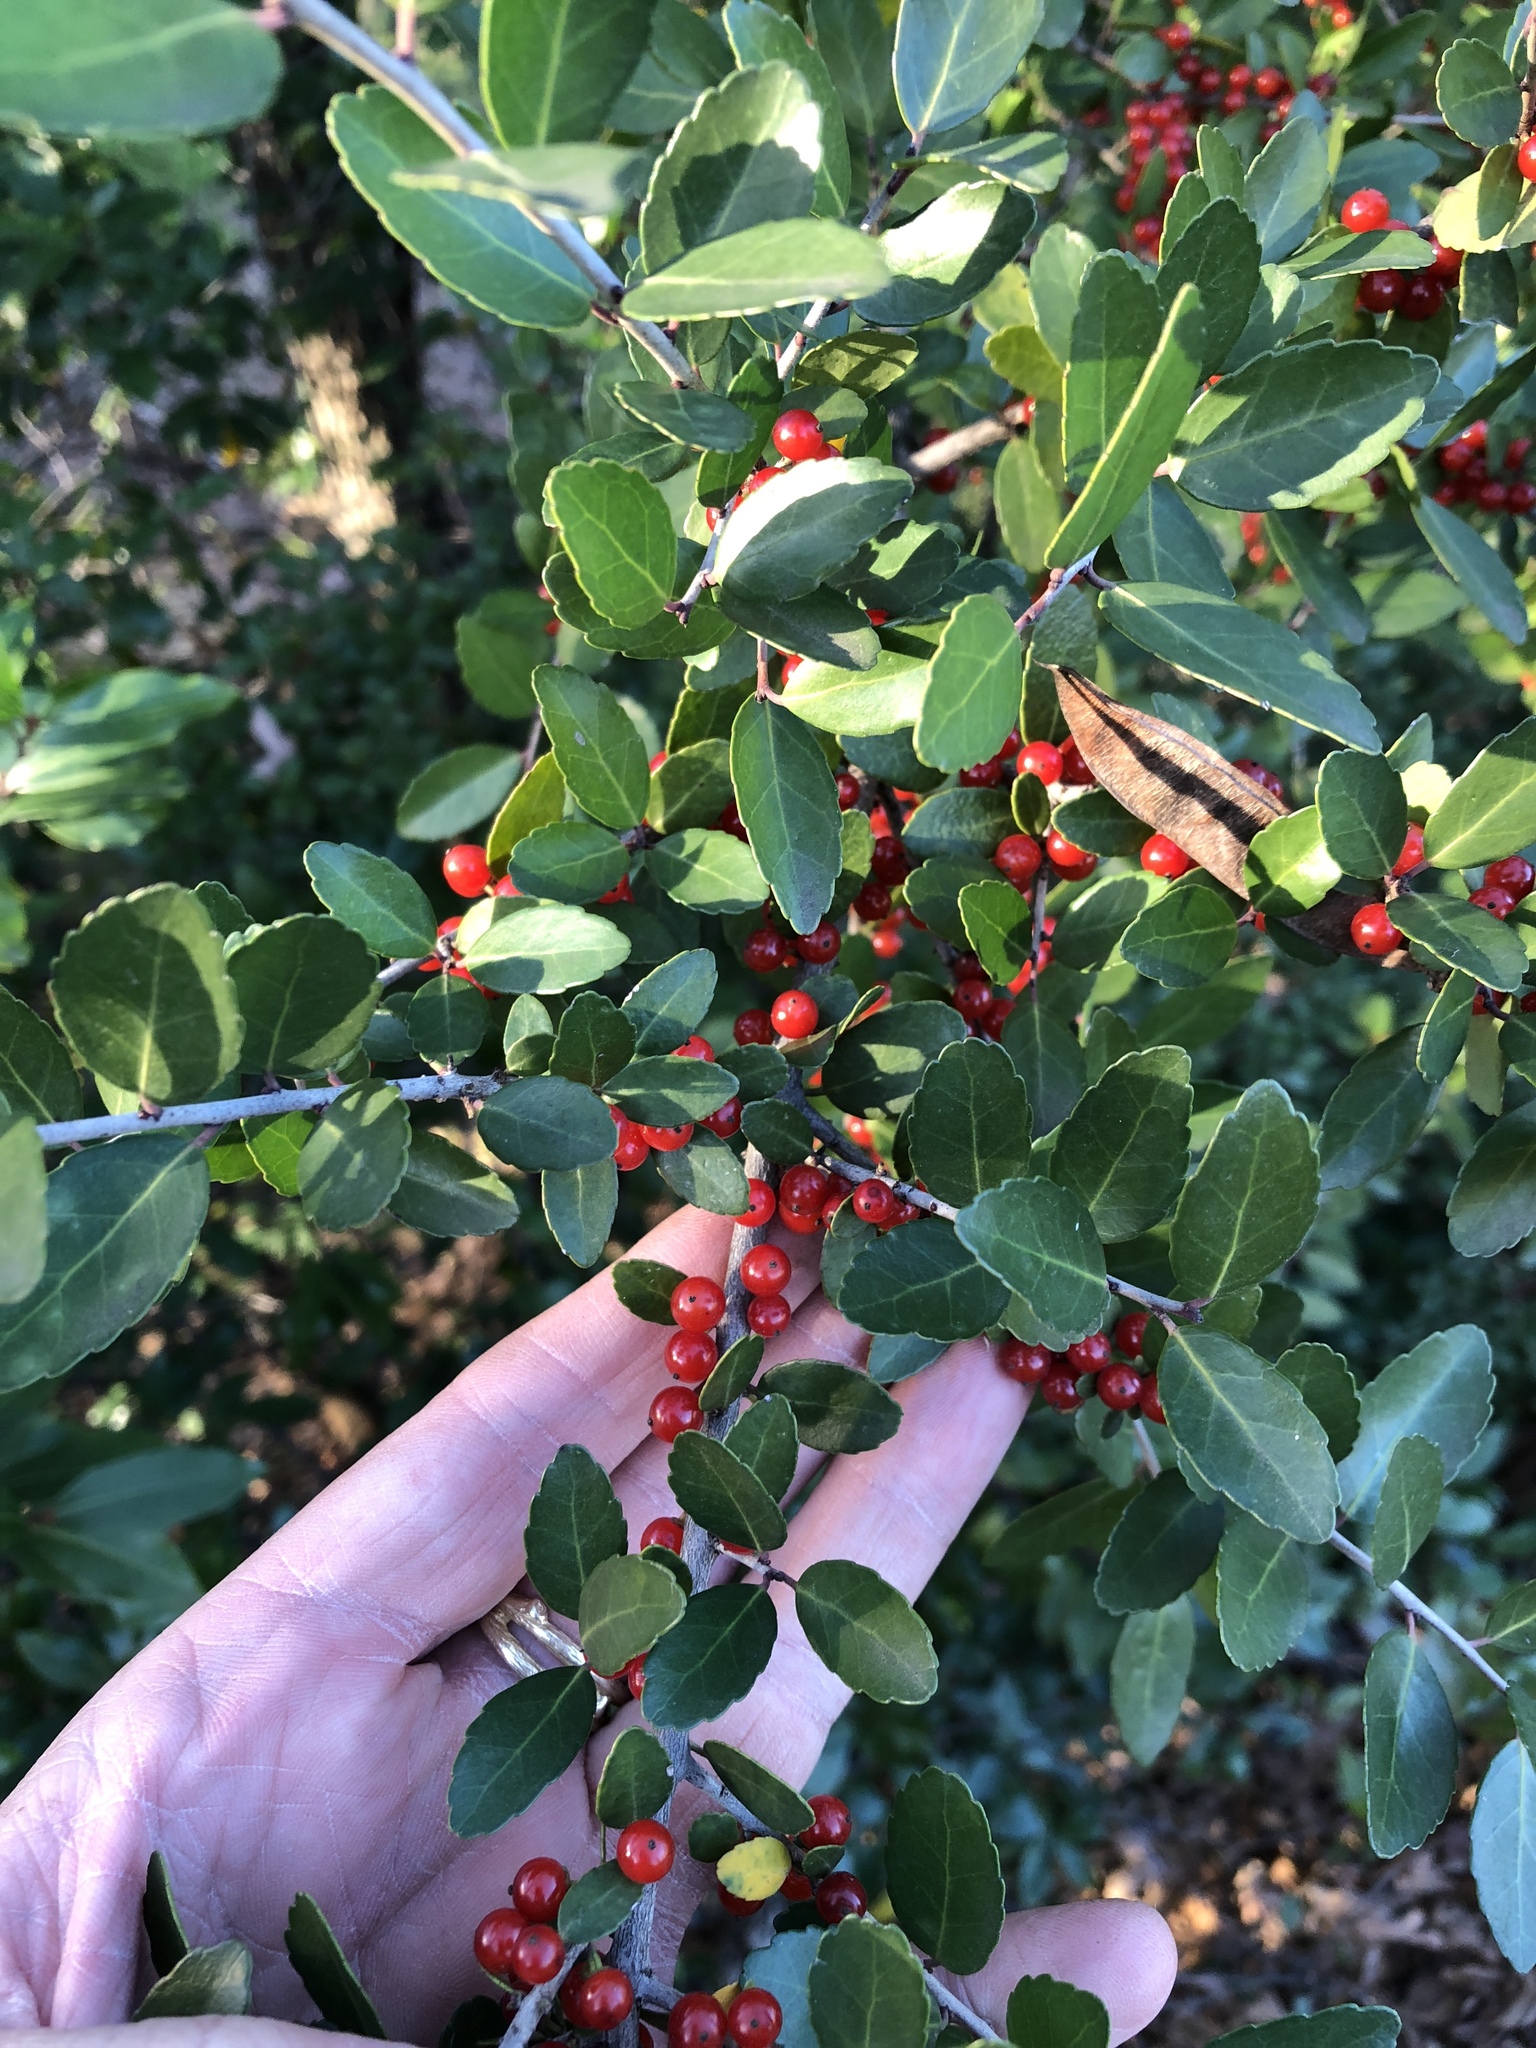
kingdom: Plantae
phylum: Tracheophyta
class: Magnoliopsida
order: Aquifoliales
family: Aquifoliaceae
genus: Ilex
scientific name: Ilex vomitoria
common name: Yaupon holly
